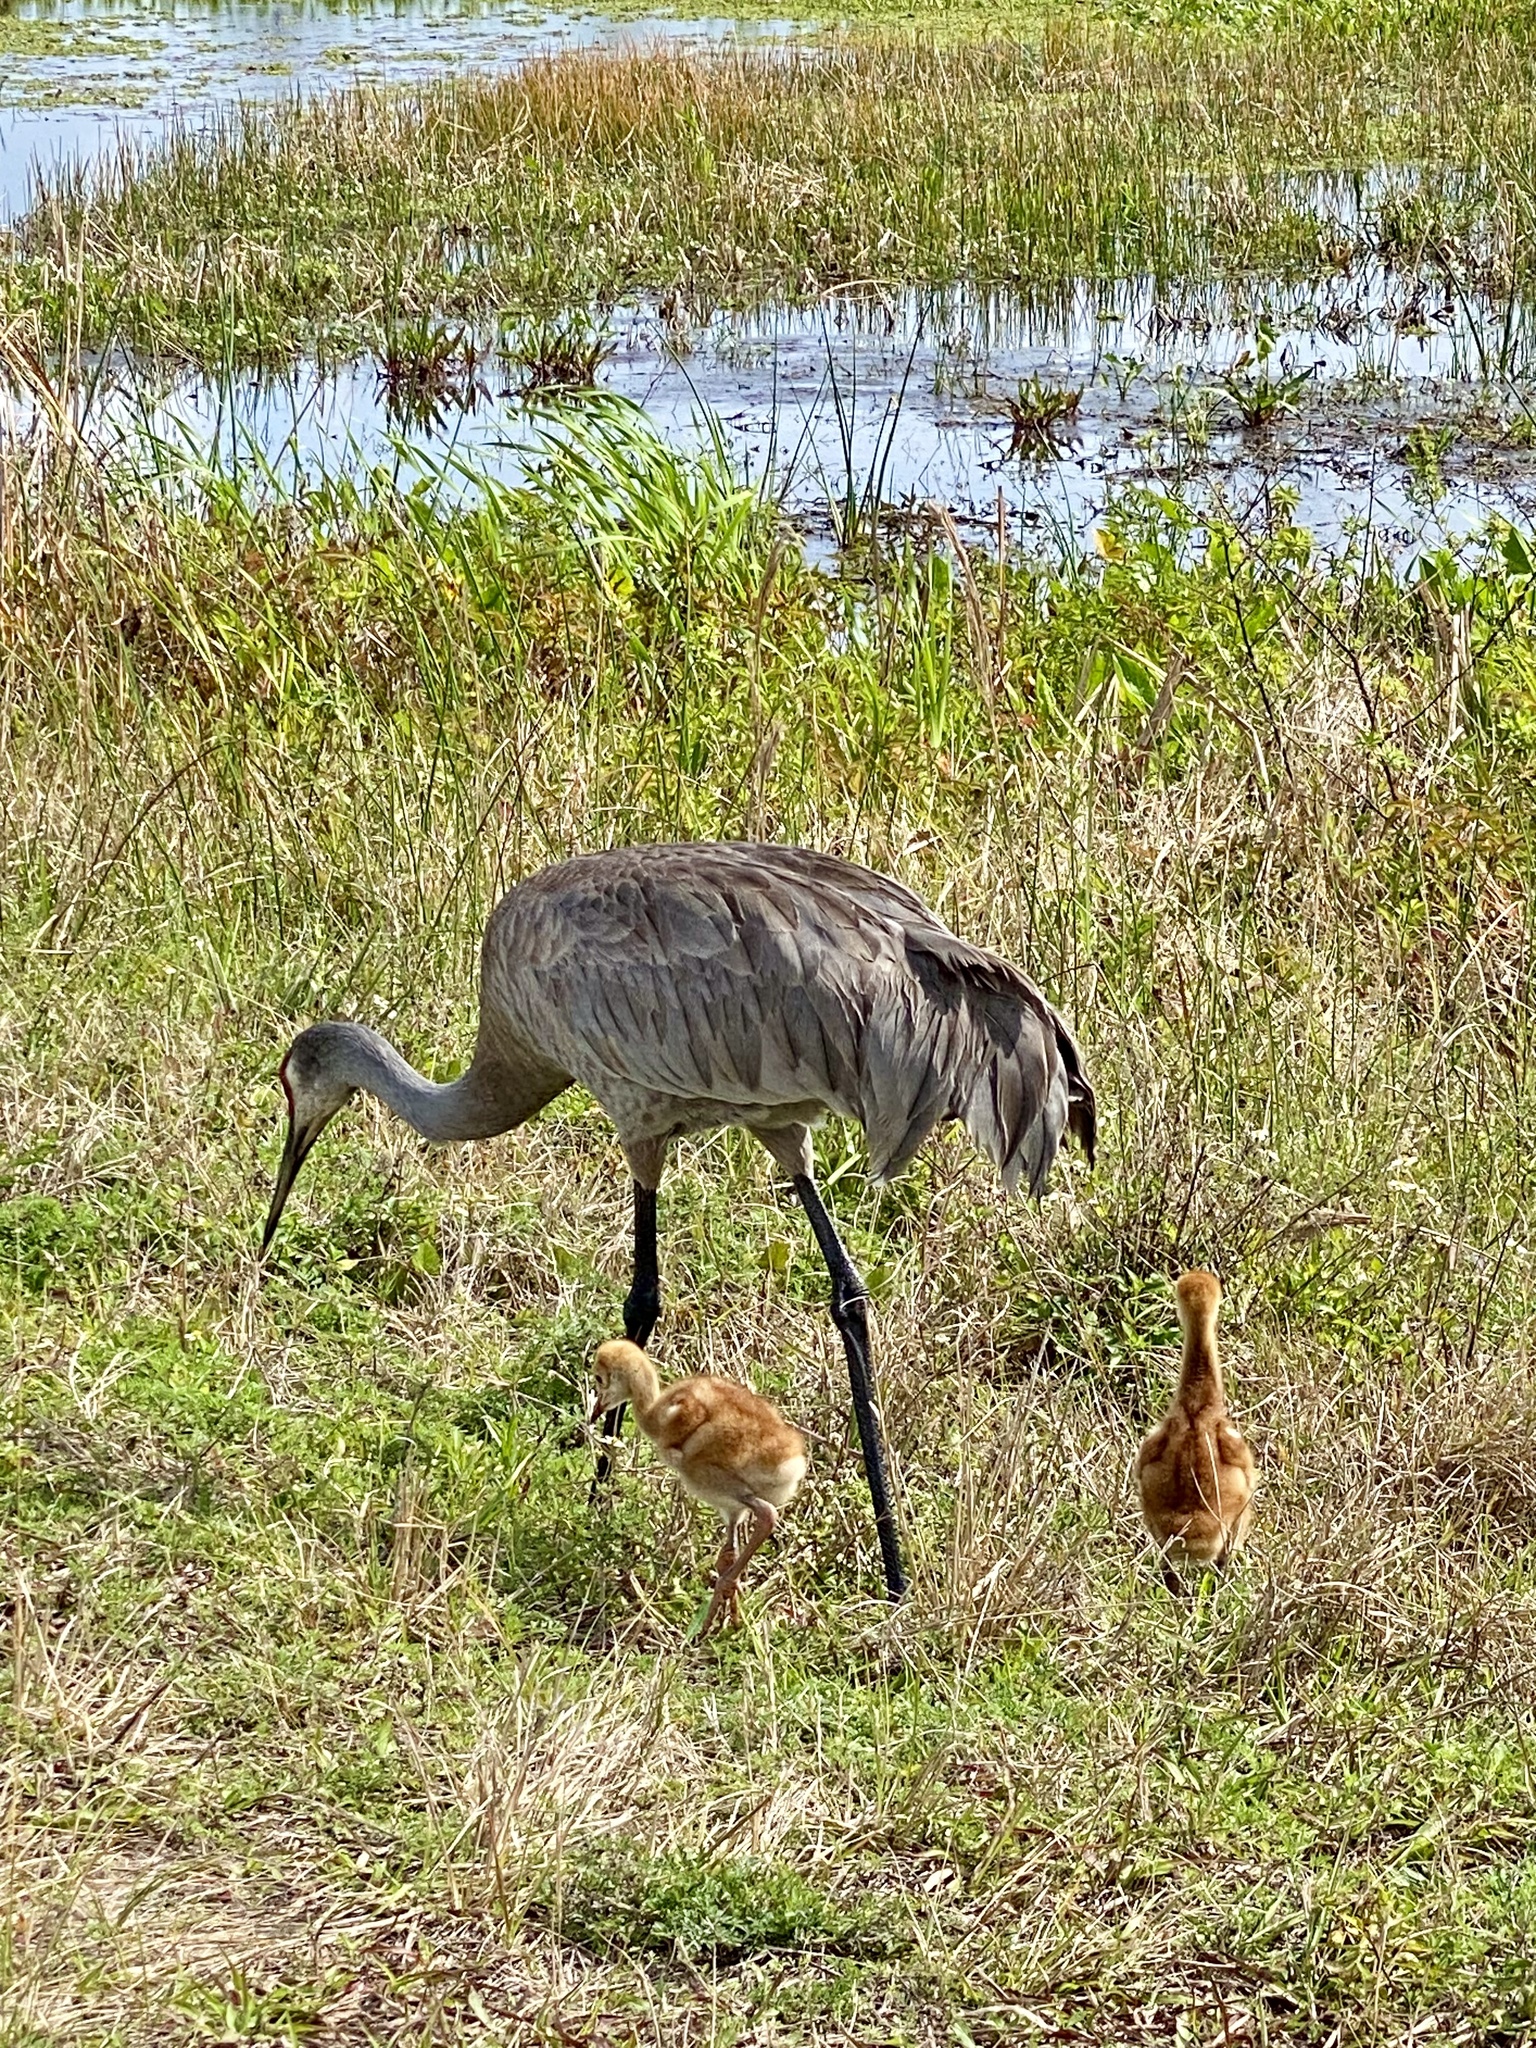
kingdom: Animalia
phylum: Chordata
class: Aves
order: Gruiformes
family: Gruidae
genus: Grus
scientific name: Grus canadensis
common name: Sandhill crane
